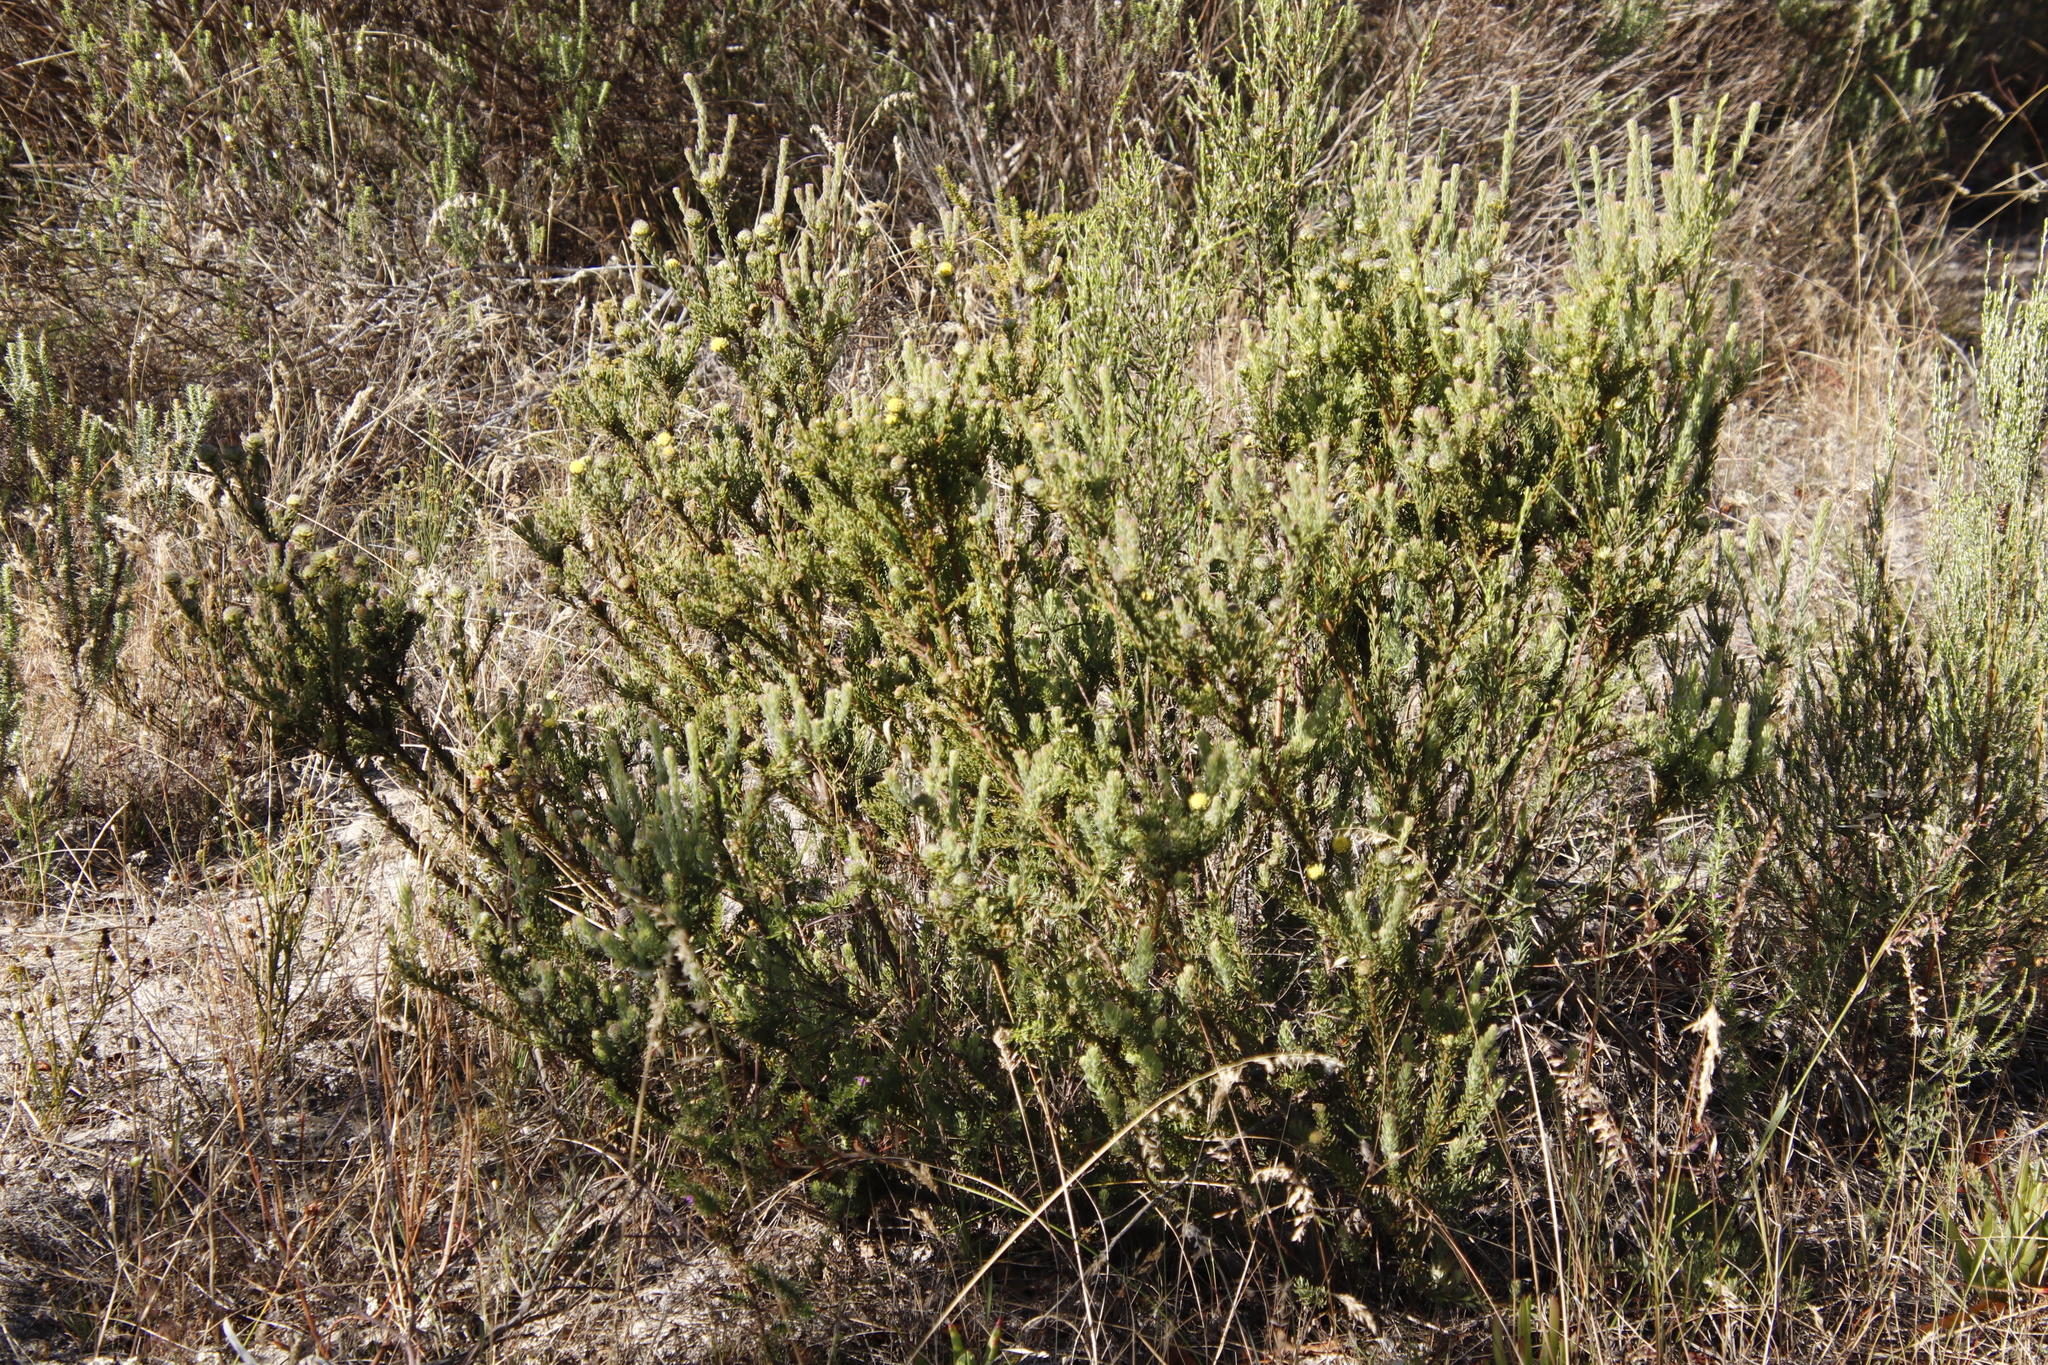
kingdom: Plantae
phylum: Tracheophyta
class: Magnoliopsida
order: Proteales
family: Proteaceae
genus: Leucadendron
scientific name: Leucadendron levisanus
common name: Cape flats conebush
